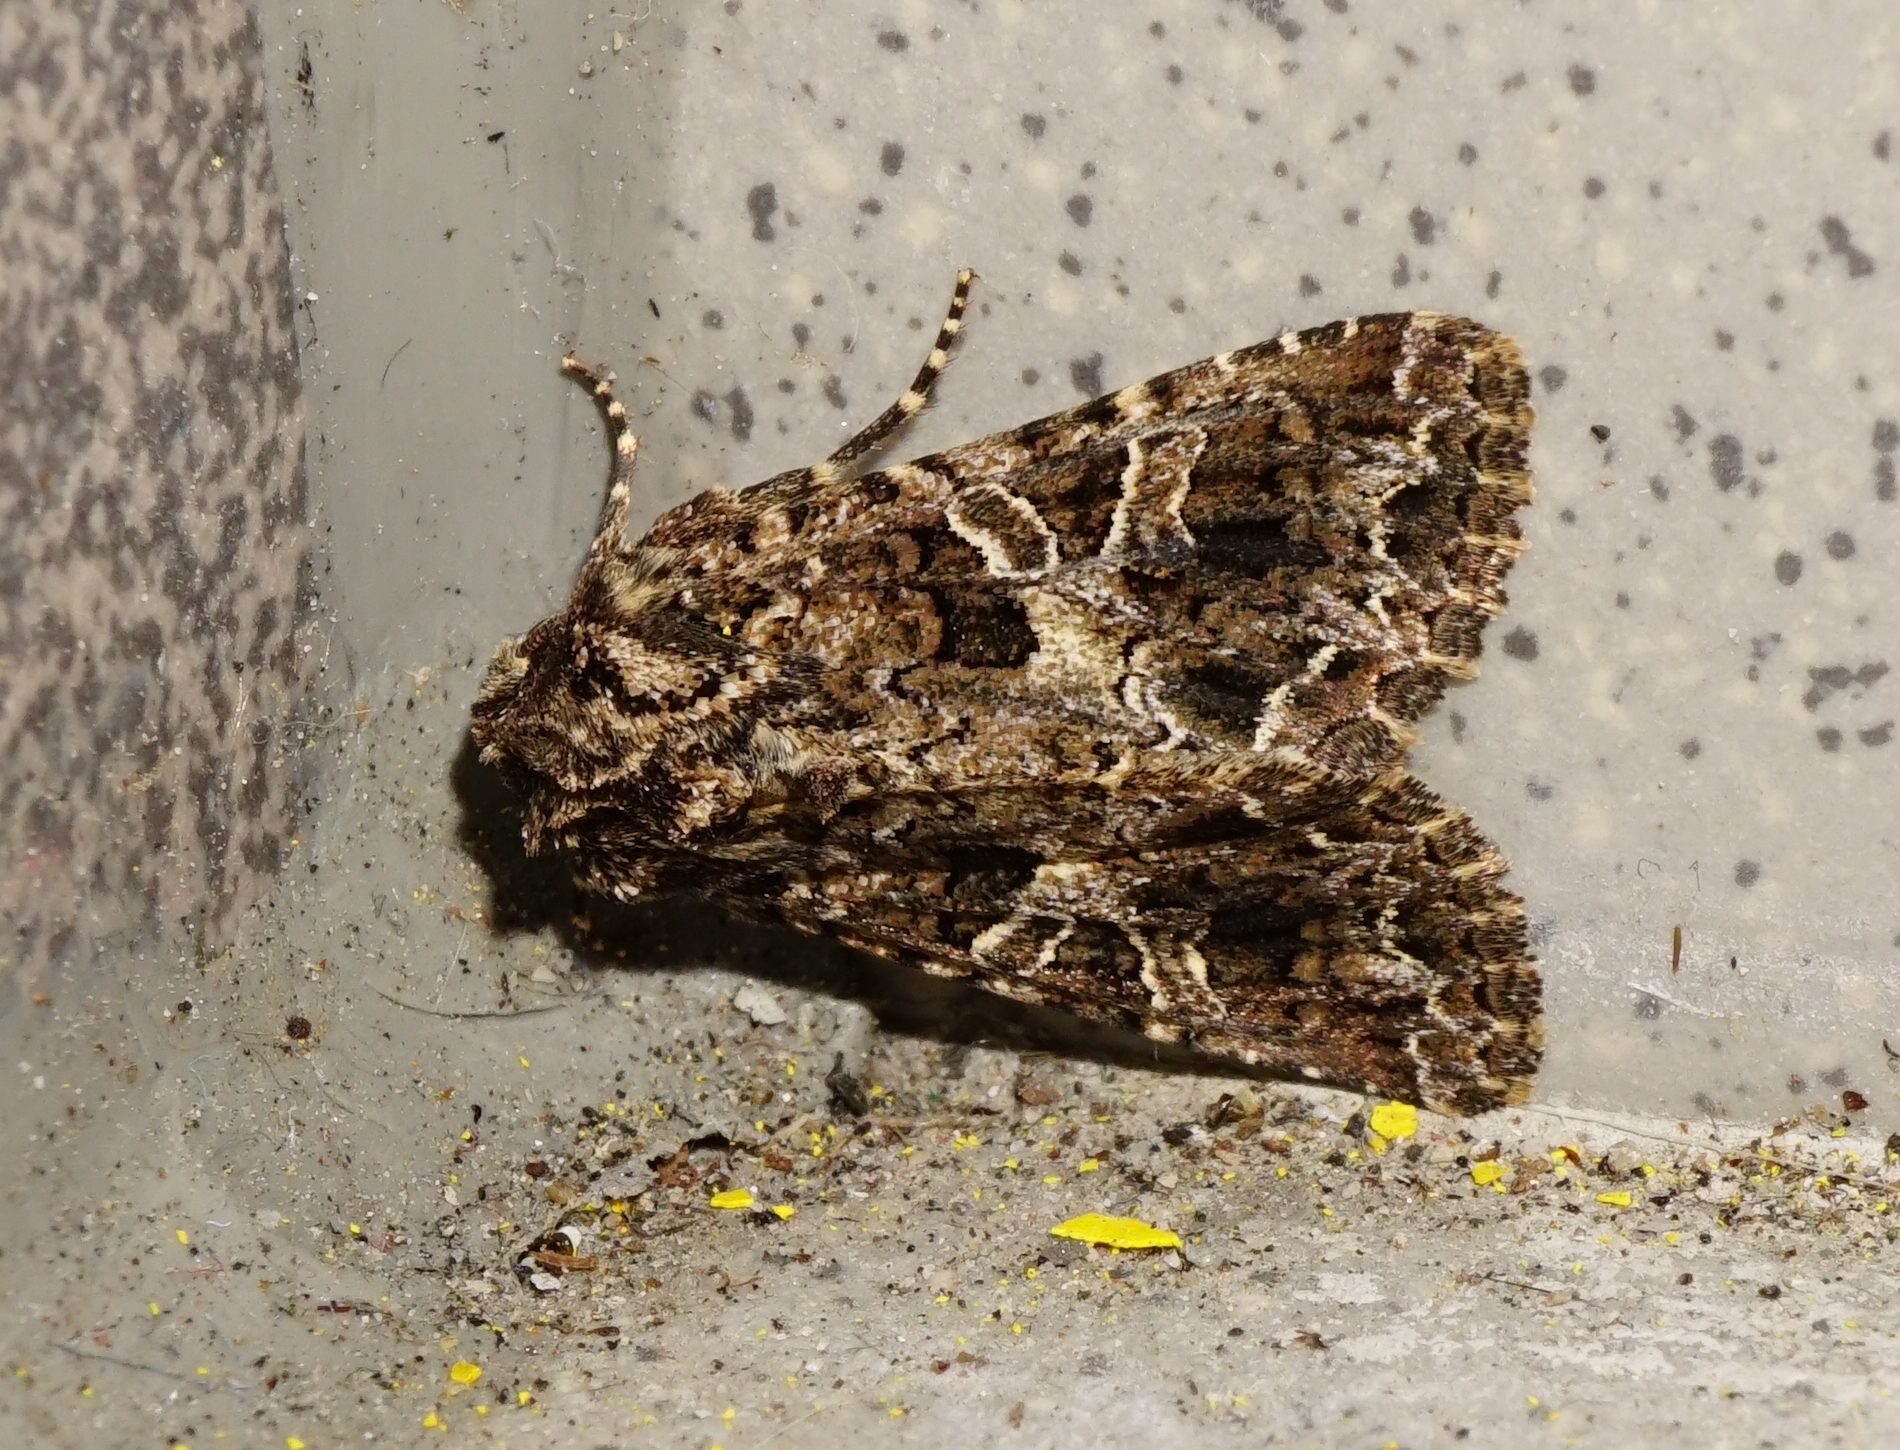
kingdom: Animalia
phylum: Arthropoda
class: Insecta
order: Lepidoptera
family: Noctuidae
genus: Sideridis
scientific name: Sideridis rivularis
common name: Campion
